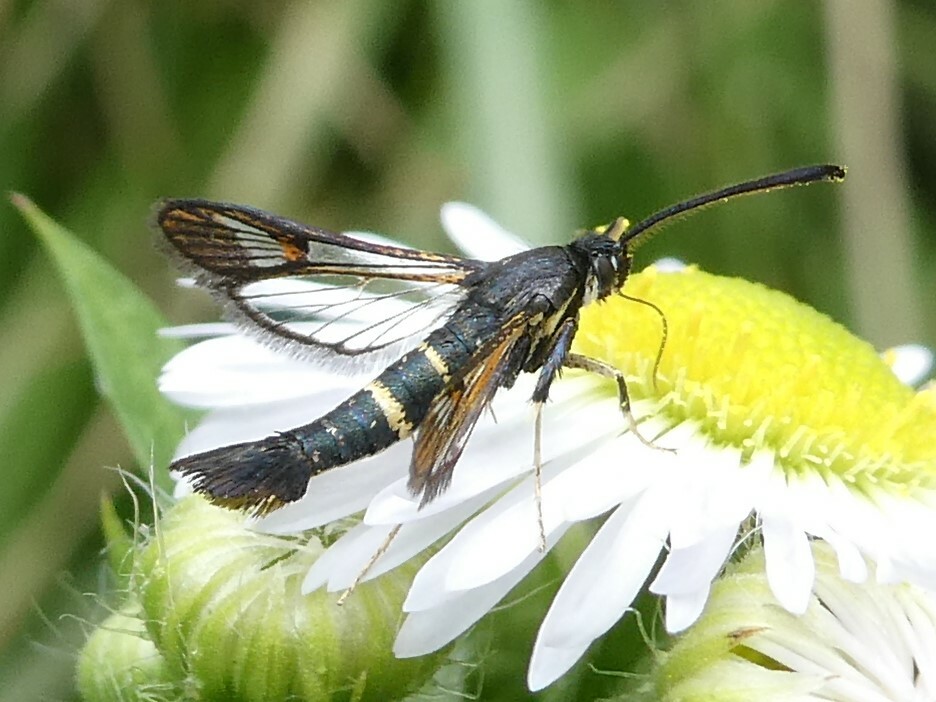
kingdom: Animalia
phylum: Arthropoda
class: Insecta
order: Lepidoptera
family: Sesiidae
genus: Synanthedon
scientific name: Synanthedon helenis
